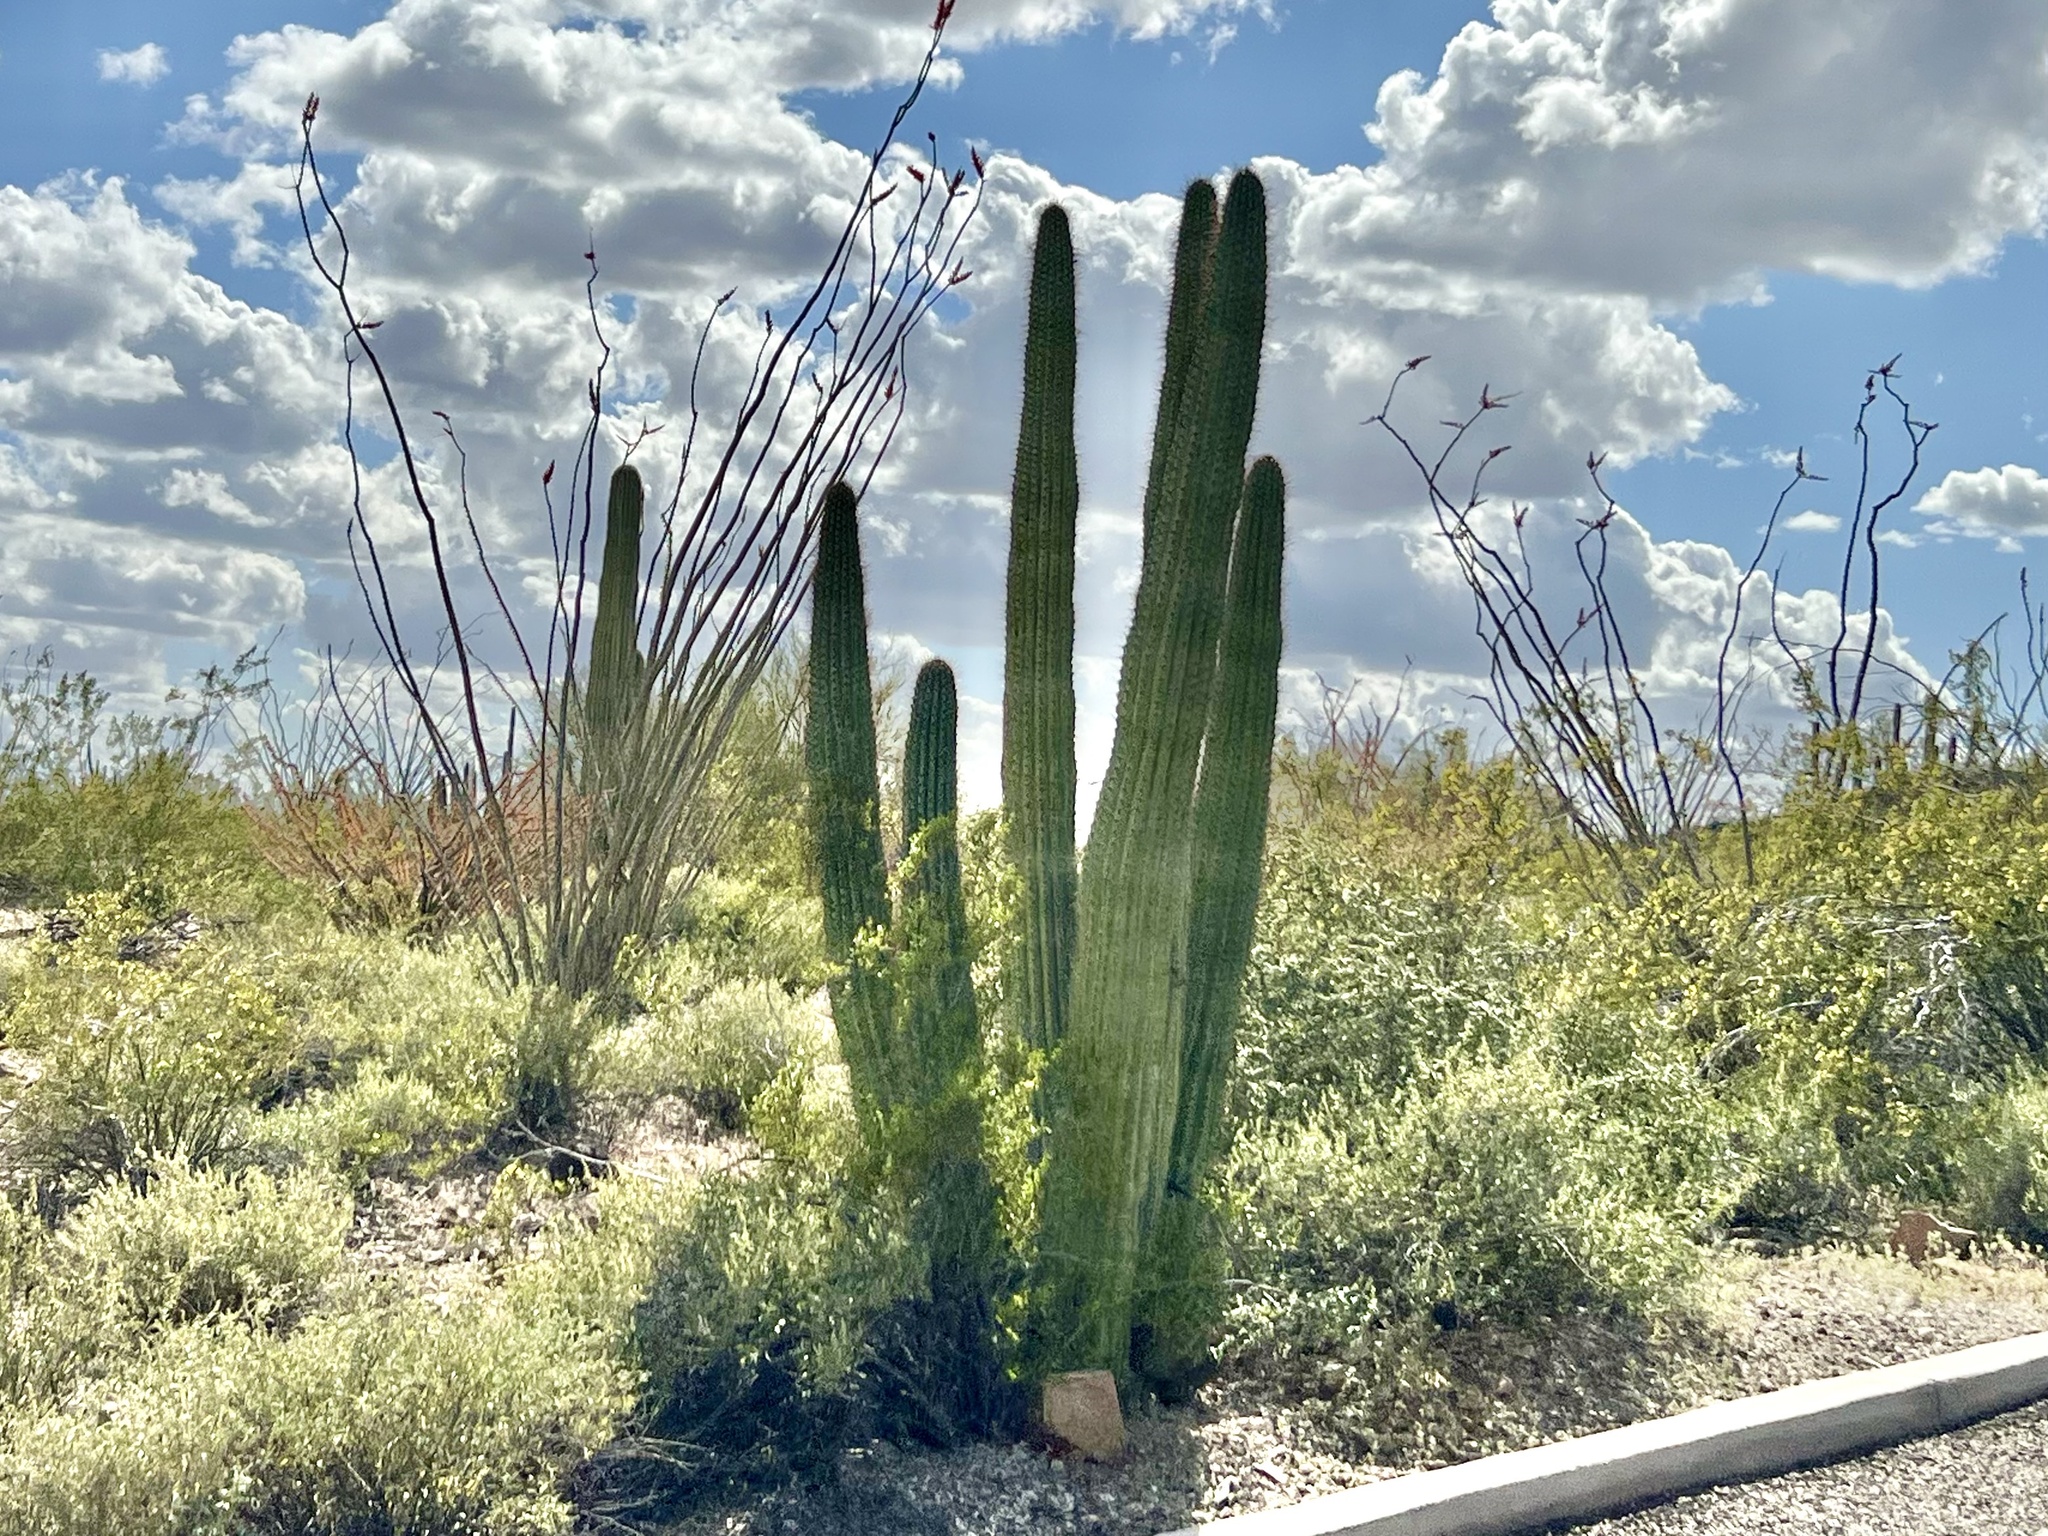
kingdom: Plantae
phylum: Tracheophyta
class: Magnoliopsida
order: Caryophyllales
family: Cactaceae
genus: Stenocereus
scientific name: Stenocereus thurberi
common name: Organ pipe cactus
